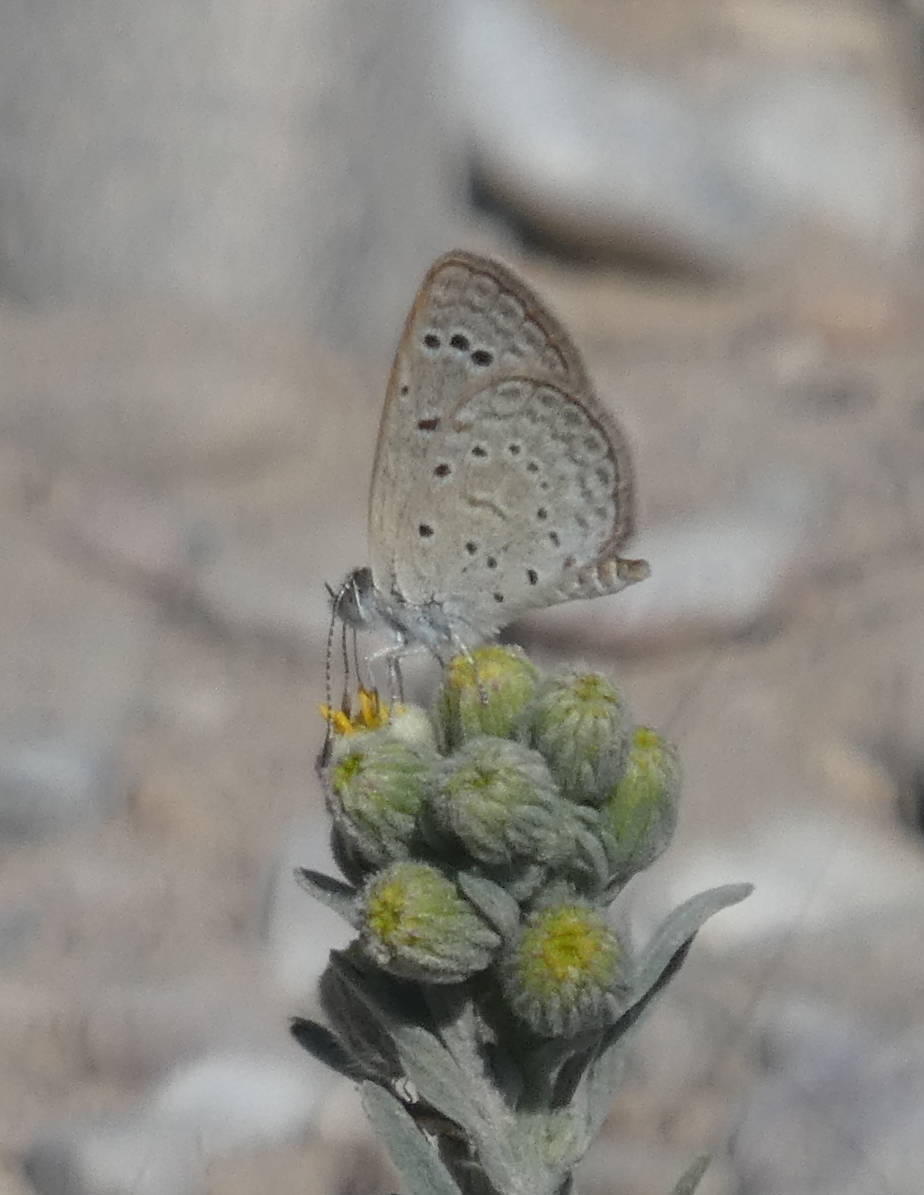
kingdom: Animalia
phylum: Arthropoda
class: Insecta
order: Lepidoptera
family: Lycaenidae
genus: Zizeeria
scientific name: Zizeeria karsandra
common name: Dark grass blue
